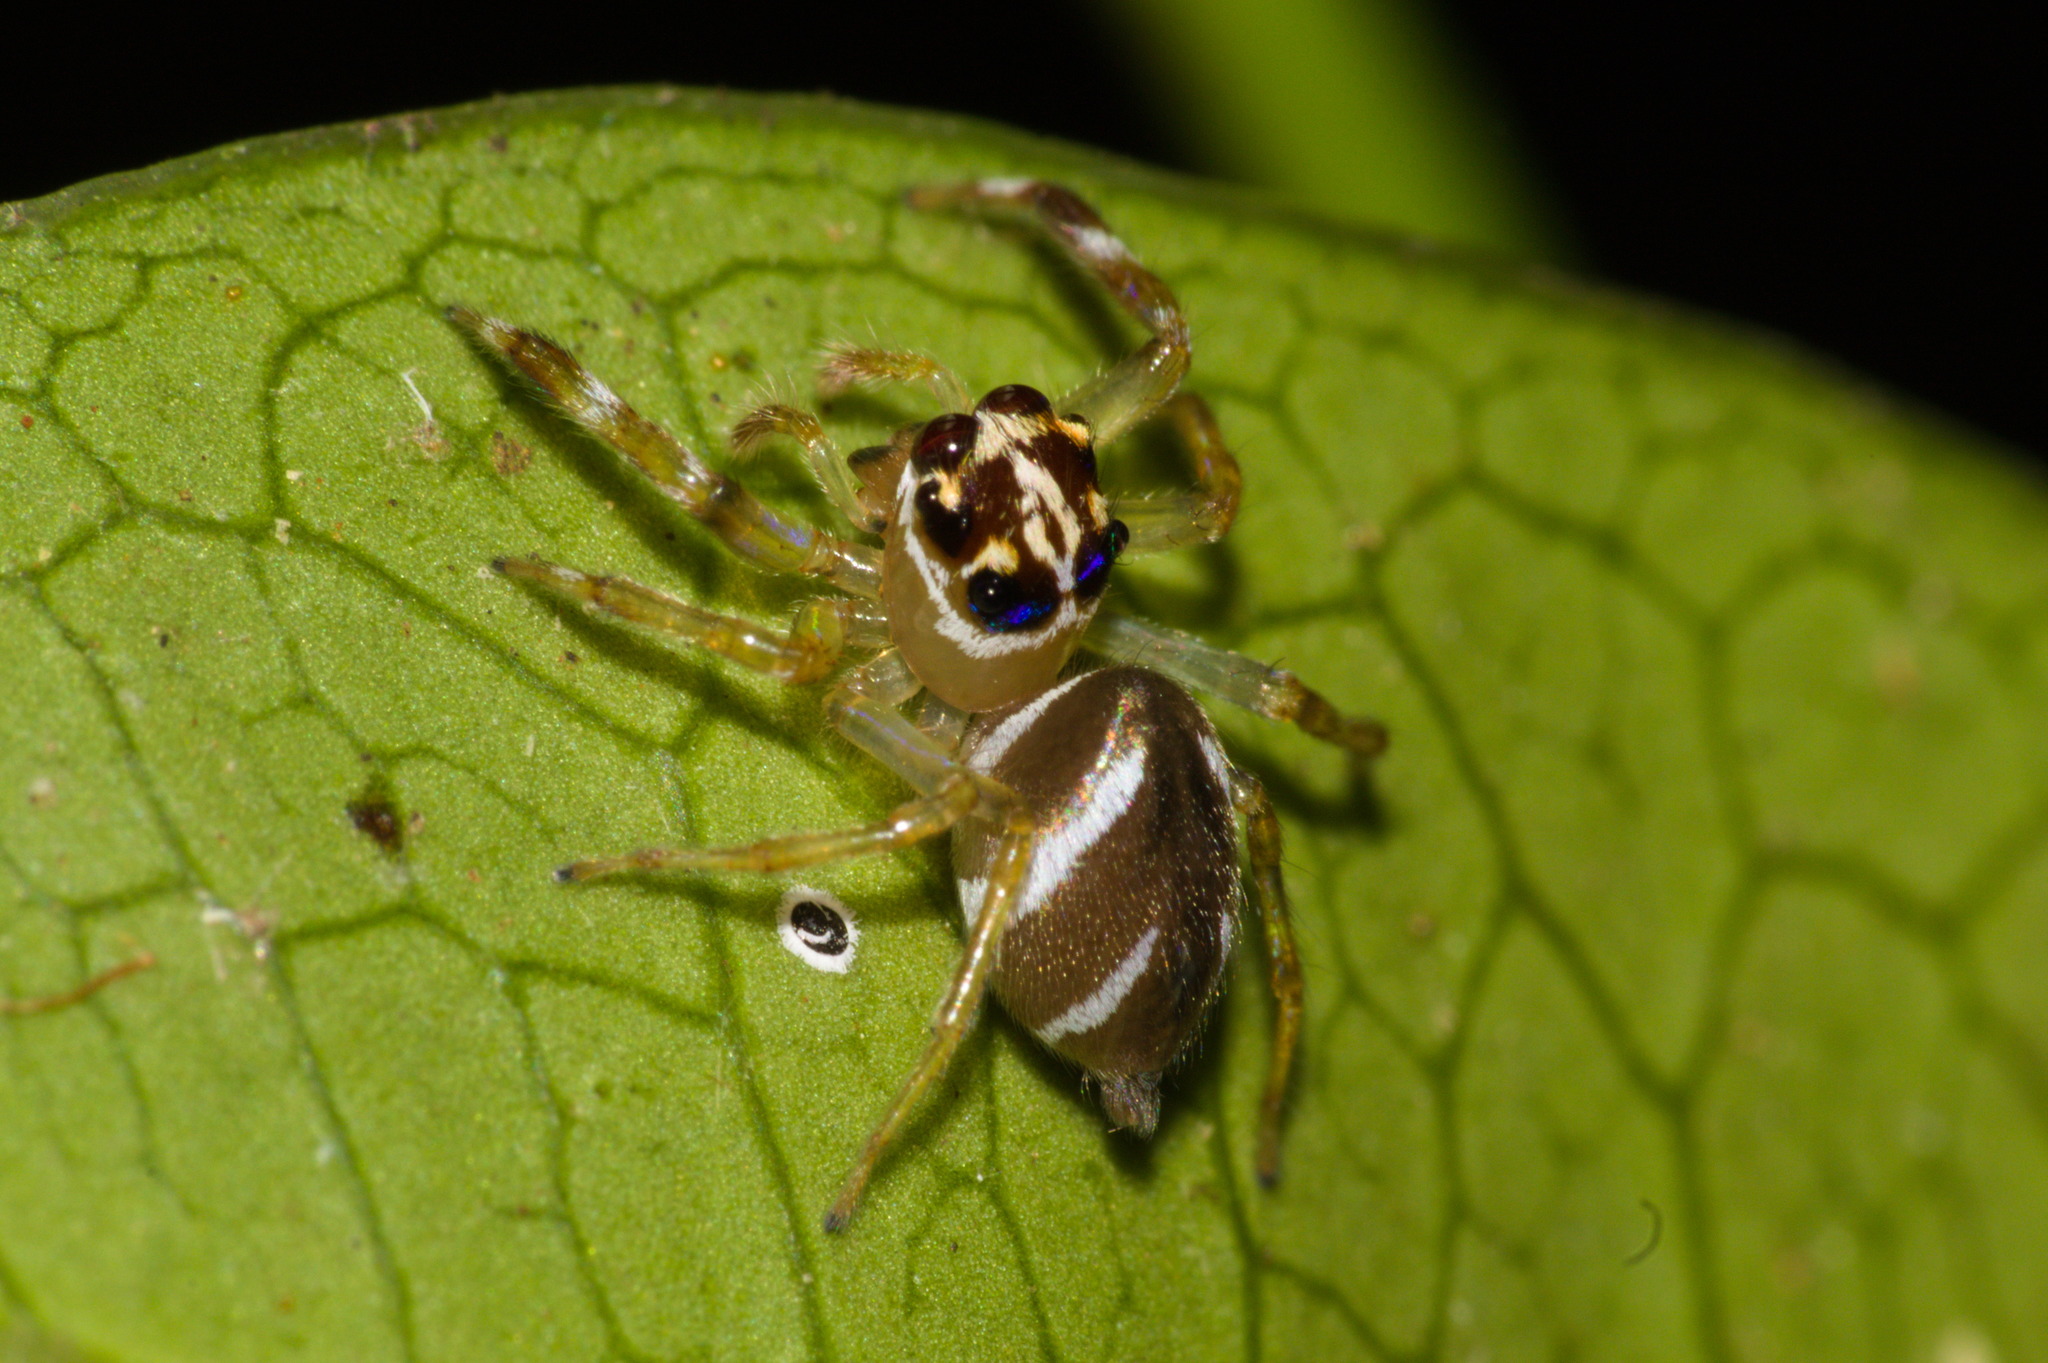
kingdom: Animalia
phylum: Arthropoda
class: Arachnida
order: Araneae
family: Salticidae
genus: Noegus
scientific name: Noegus bidens
